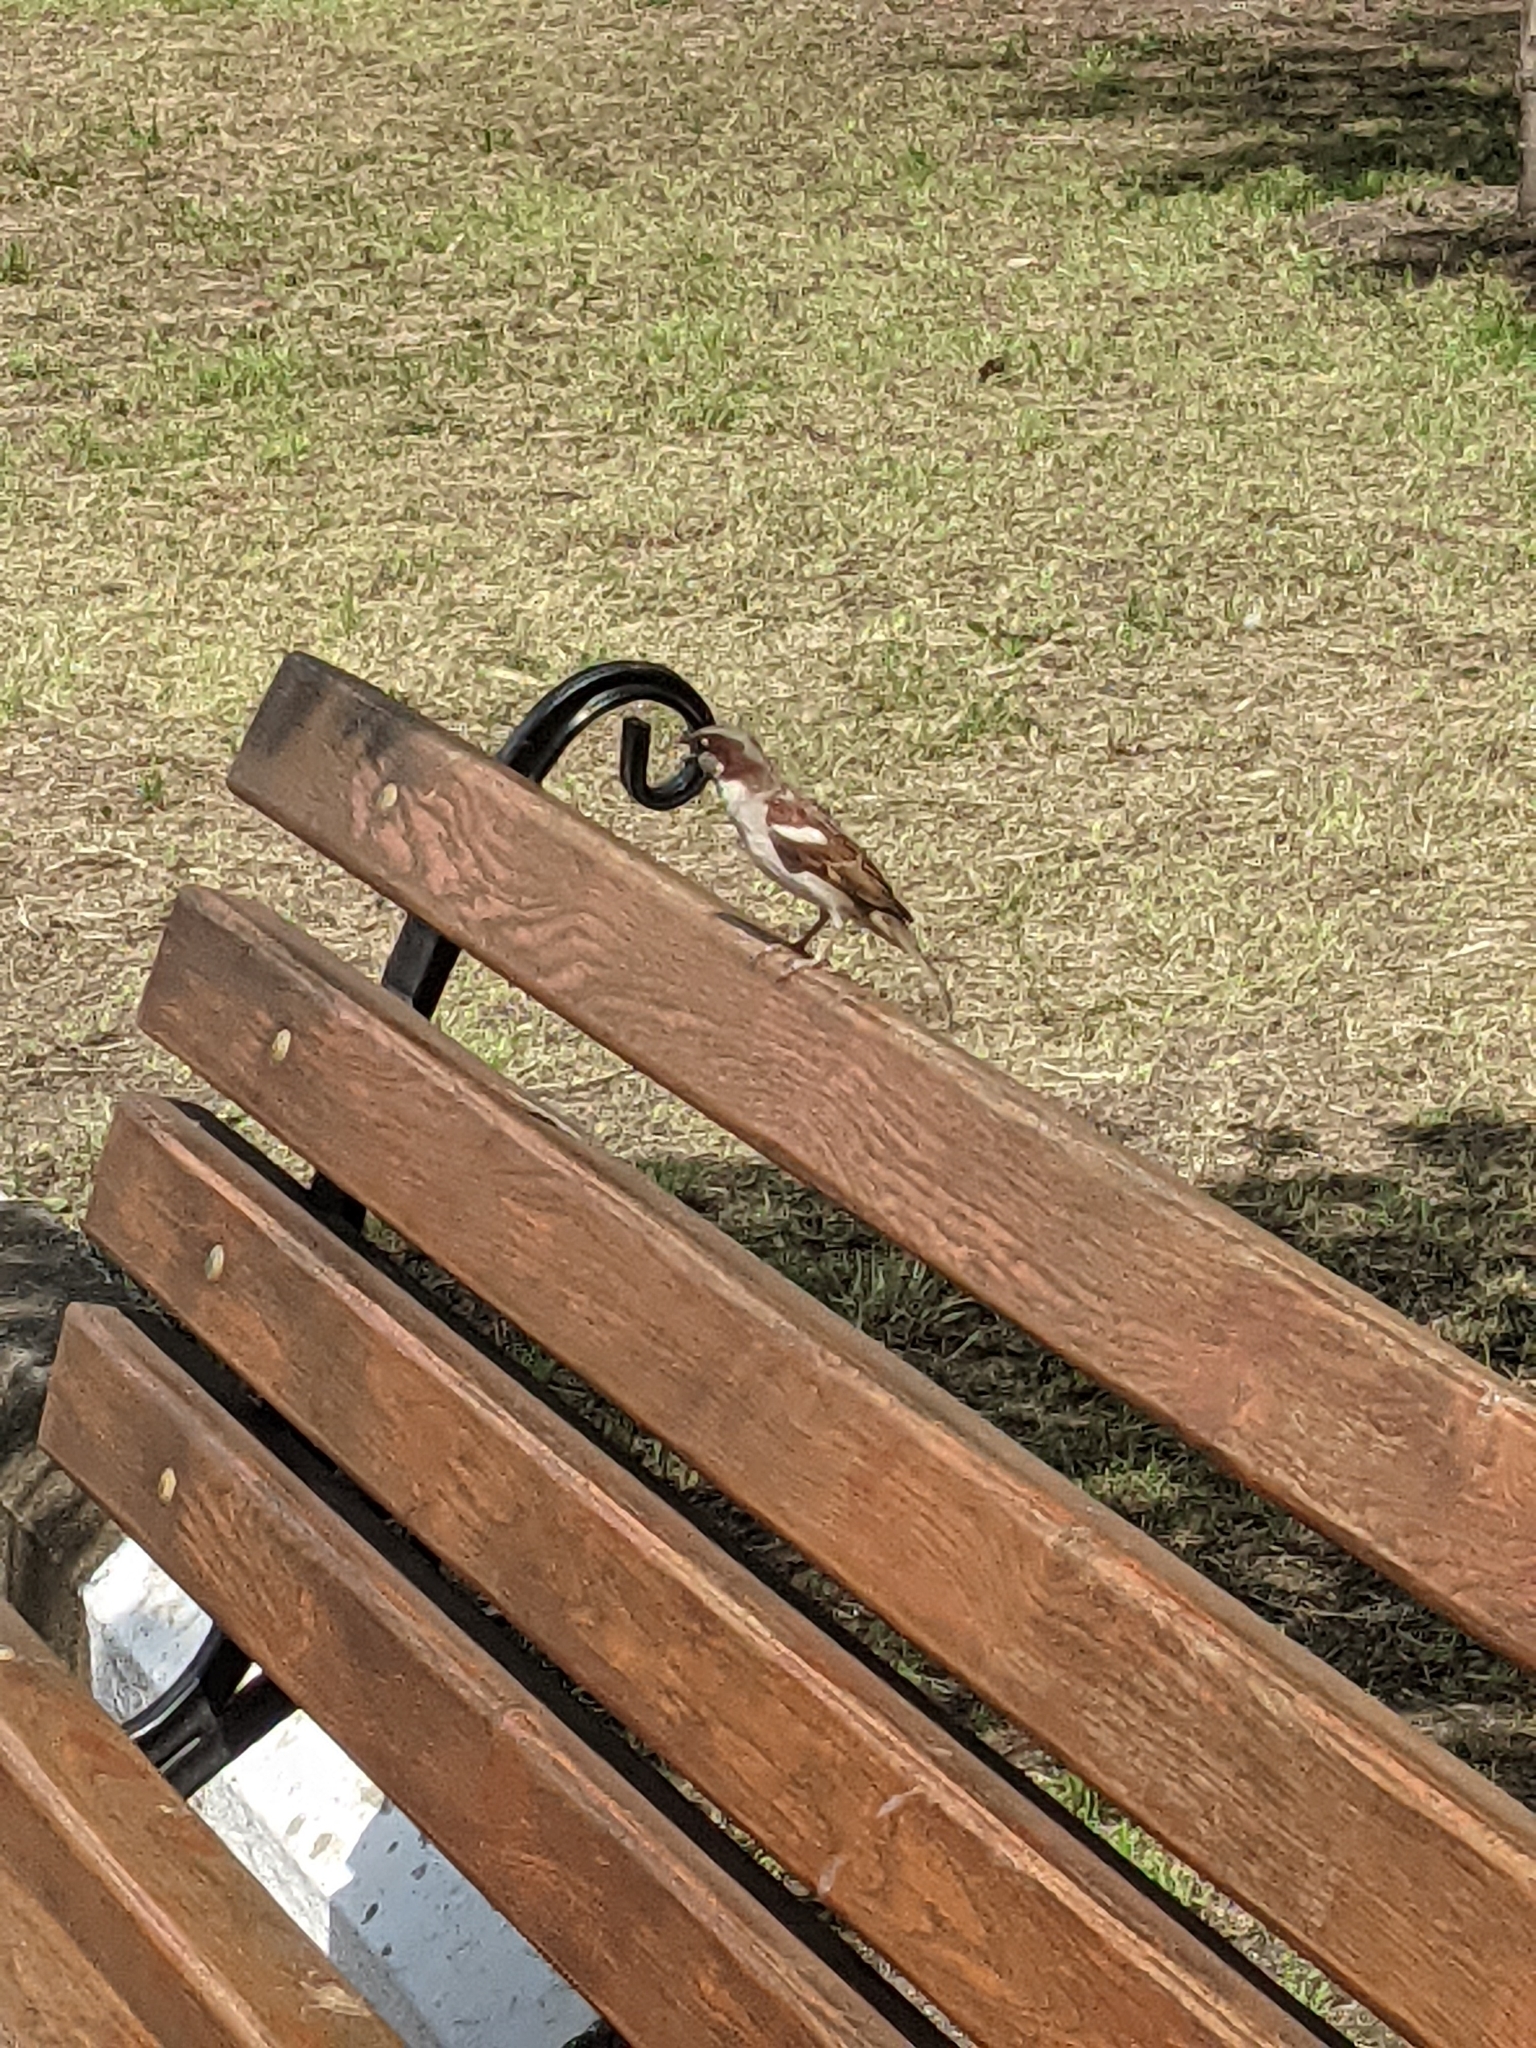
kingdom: Animalia
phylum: Chordata
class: Aves
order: Passeriformes
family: Passeridae
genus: Passer
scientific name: Passer domesticus
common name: House sparrow
